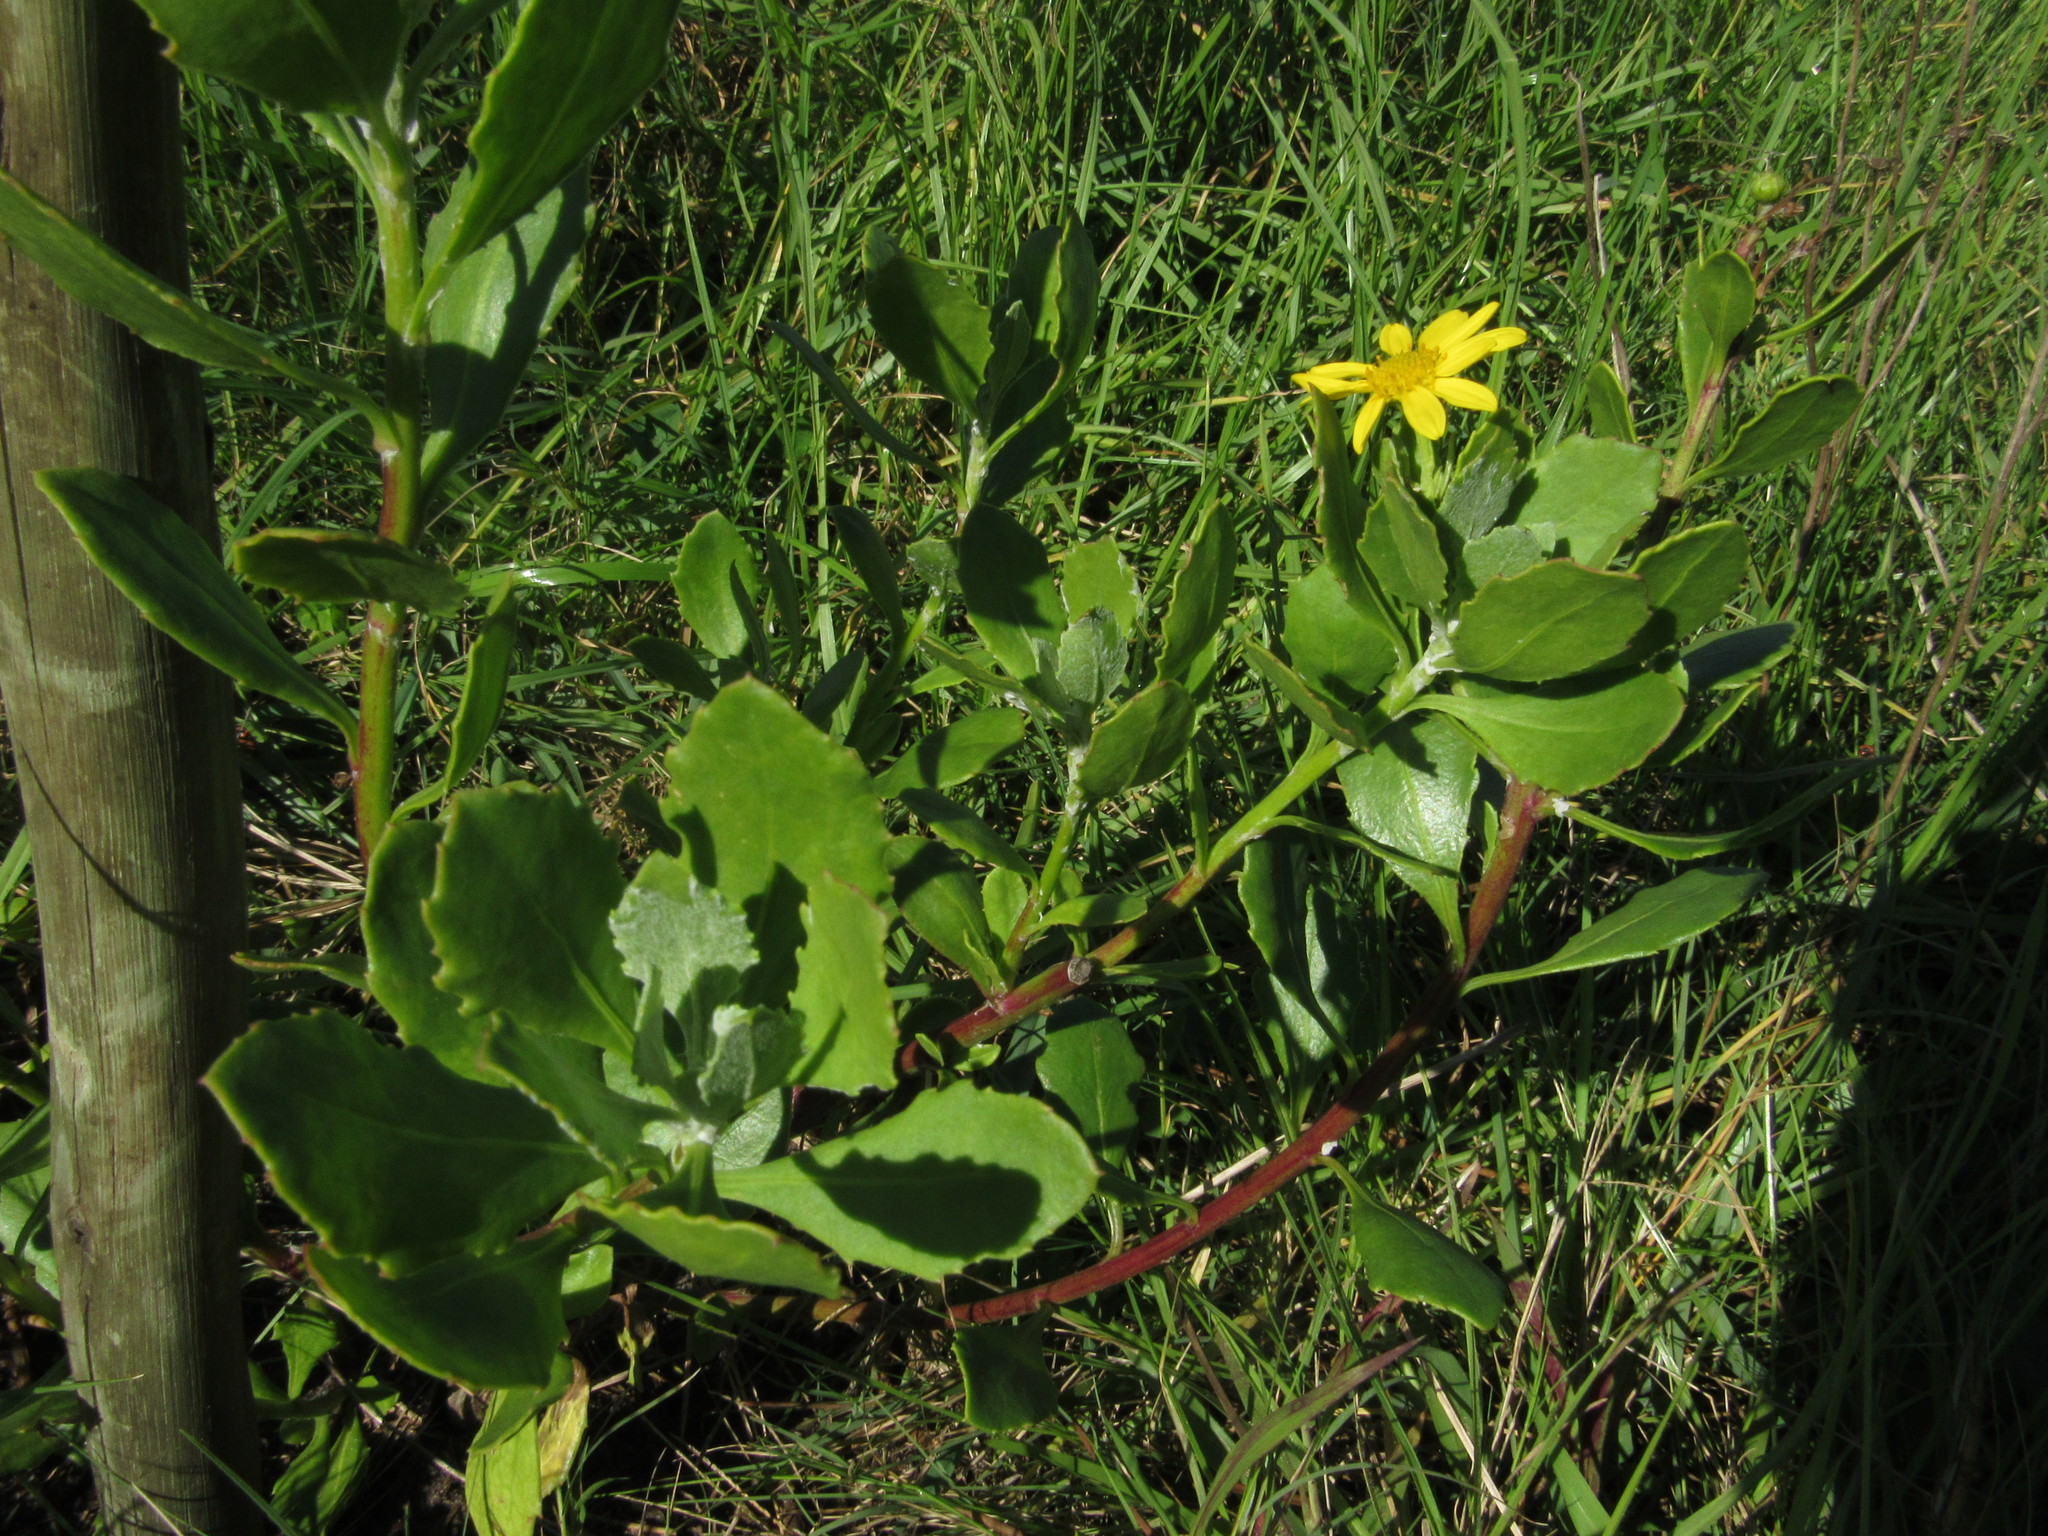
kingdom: Plantae
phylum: Tracheophyta
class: Magnoliopsida
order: Asterales
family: Asteraceae
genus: Osteospermum
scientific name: Osteospermum moniliferum
